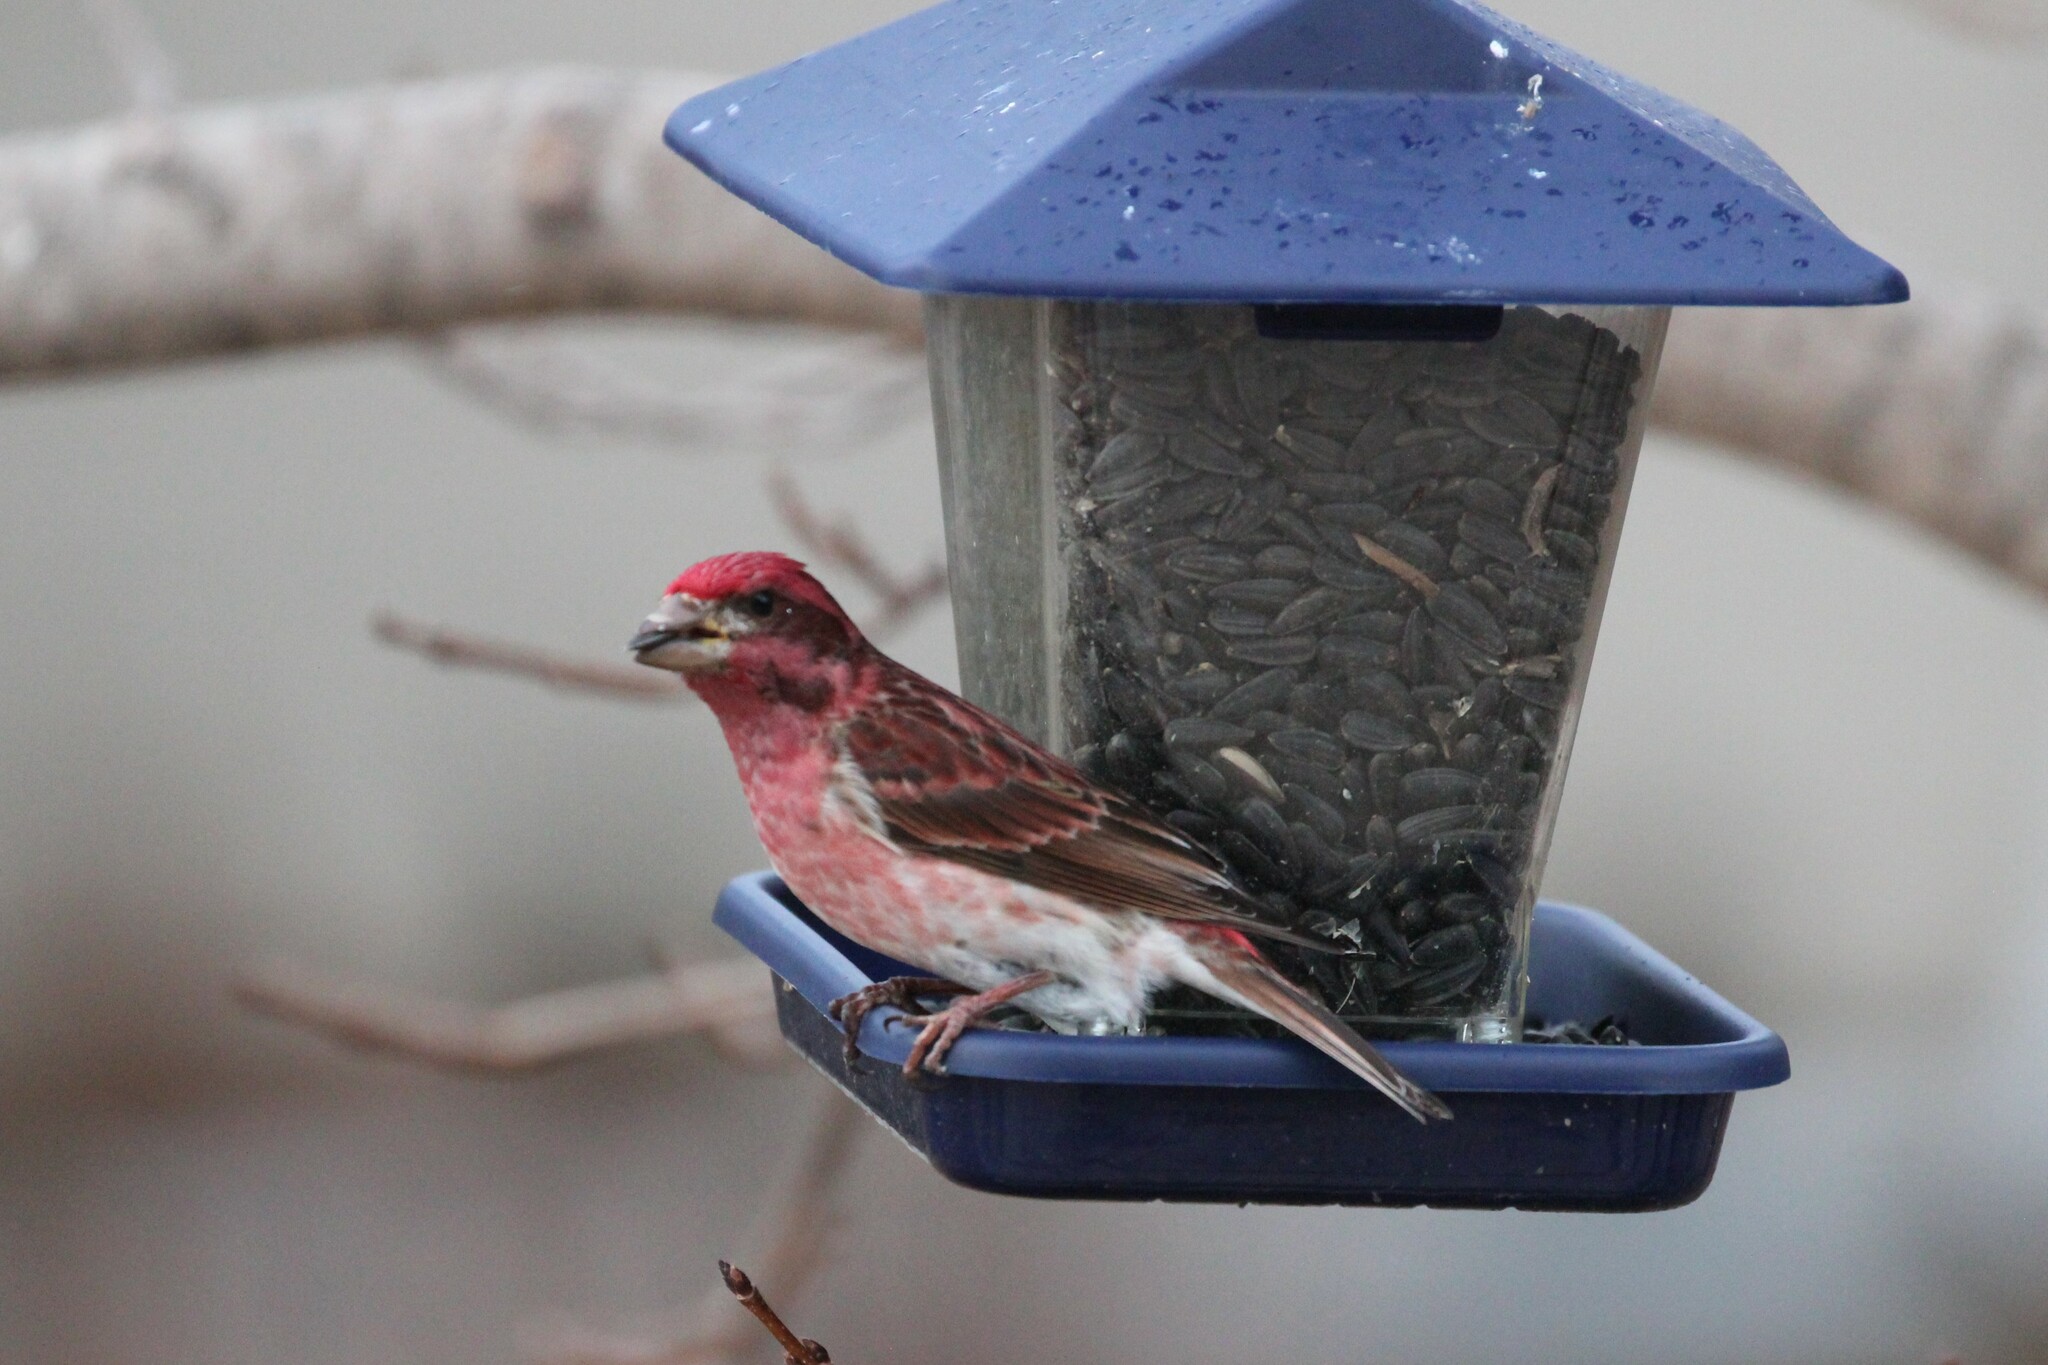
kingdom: Animalia
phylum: Chordata
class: Aves
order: Passeriformes
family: Fringillidae
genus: Haemorhous
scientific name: Haemorhous purpureus
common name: Purple finch
